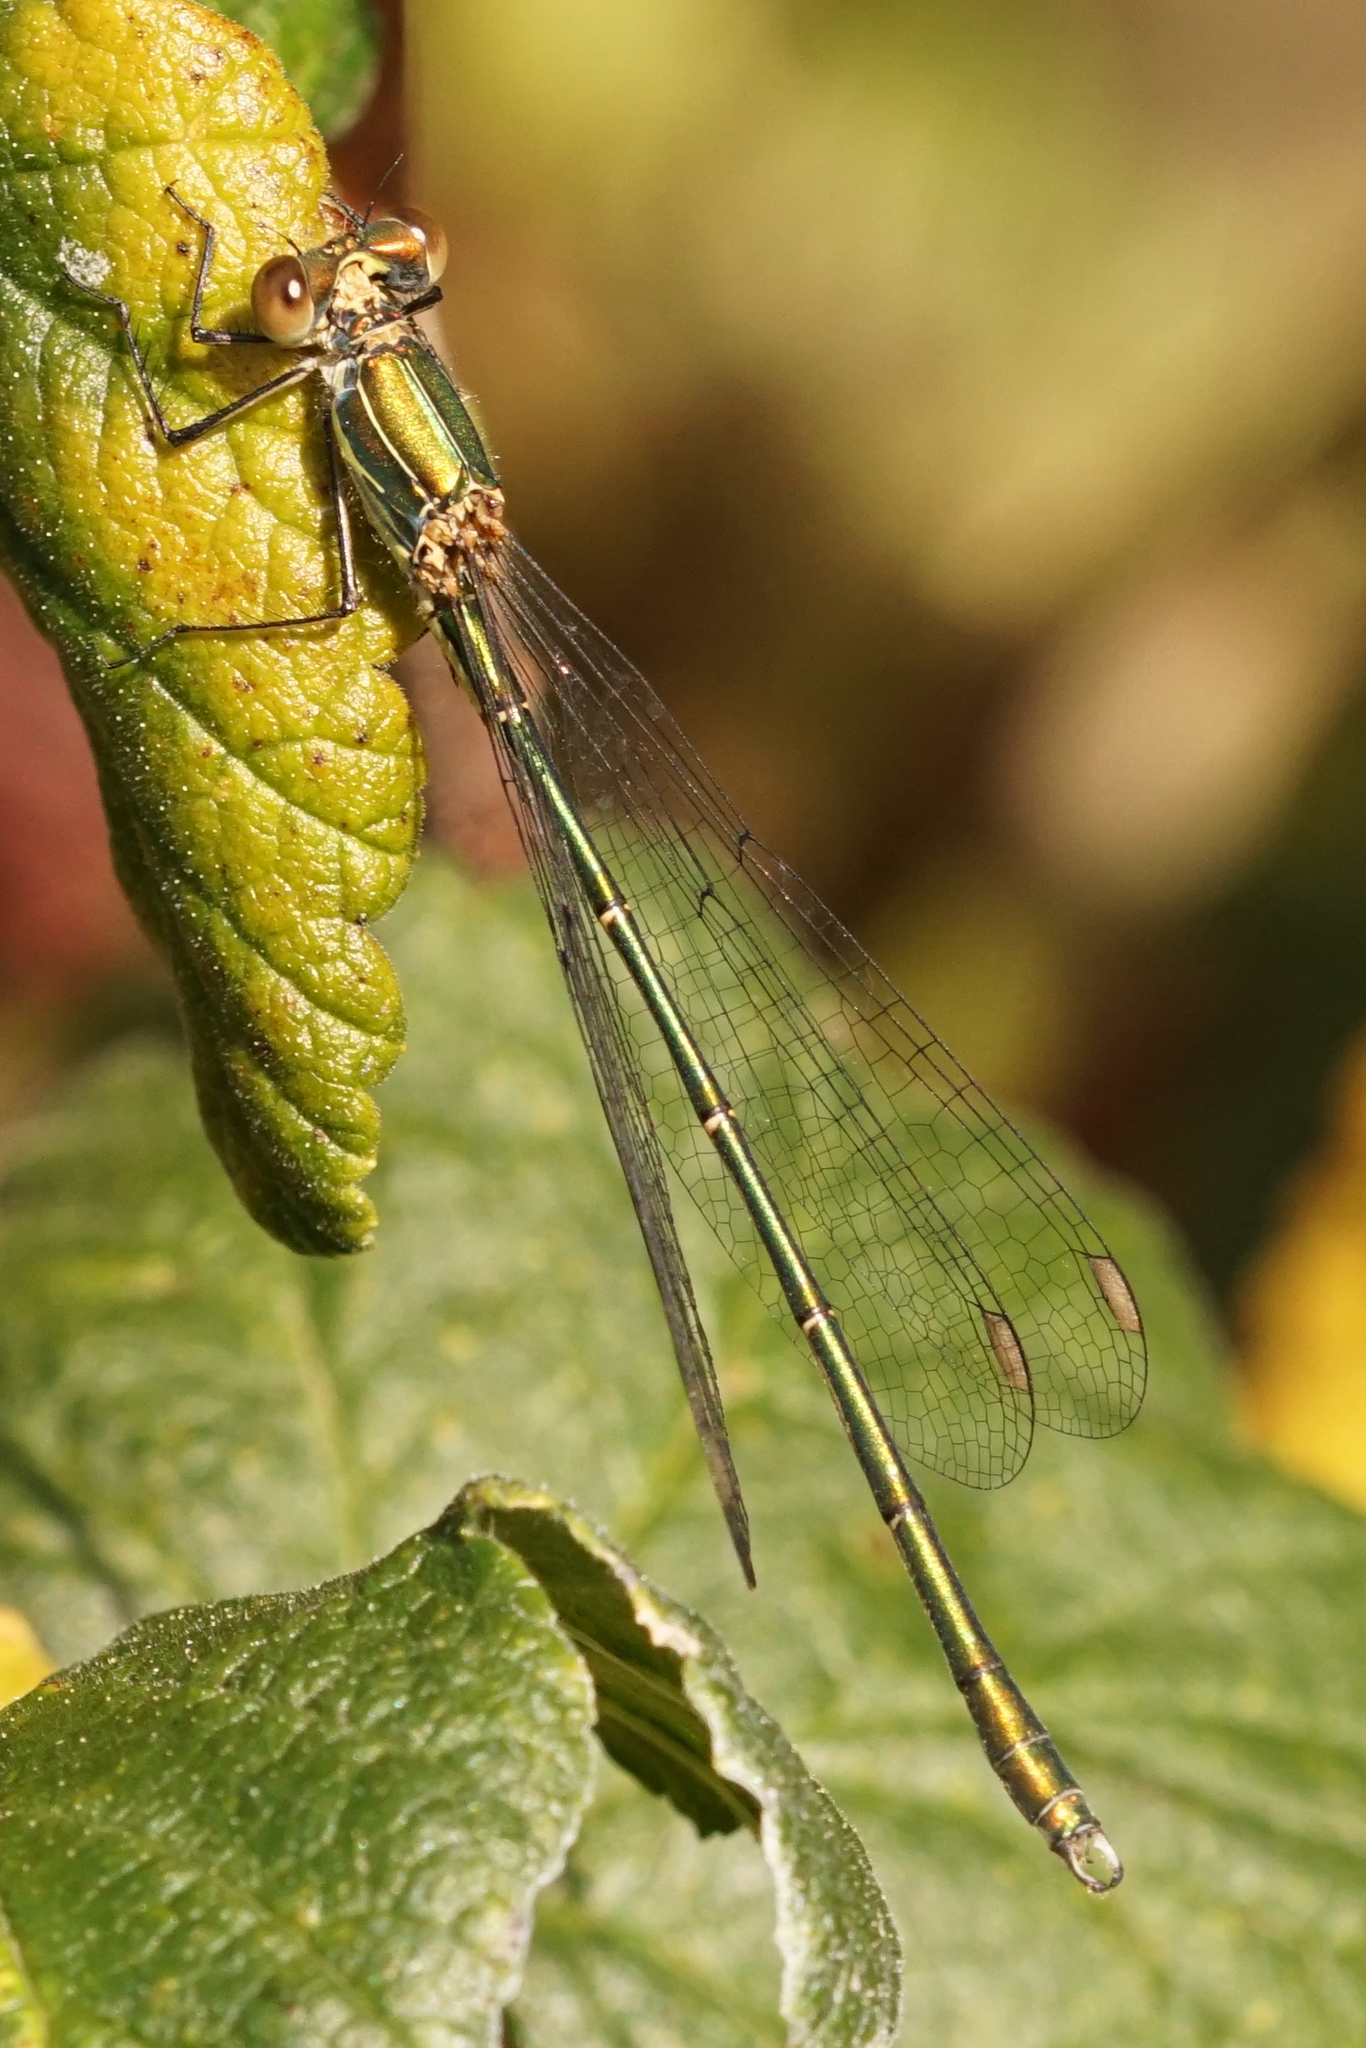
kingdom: Animalia
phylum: Arthropoda
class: Insecta
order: Odonata
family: Lestidae
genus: Chalcolestes
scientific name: Chalcolestes viridis
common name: Green emerald damselfly
